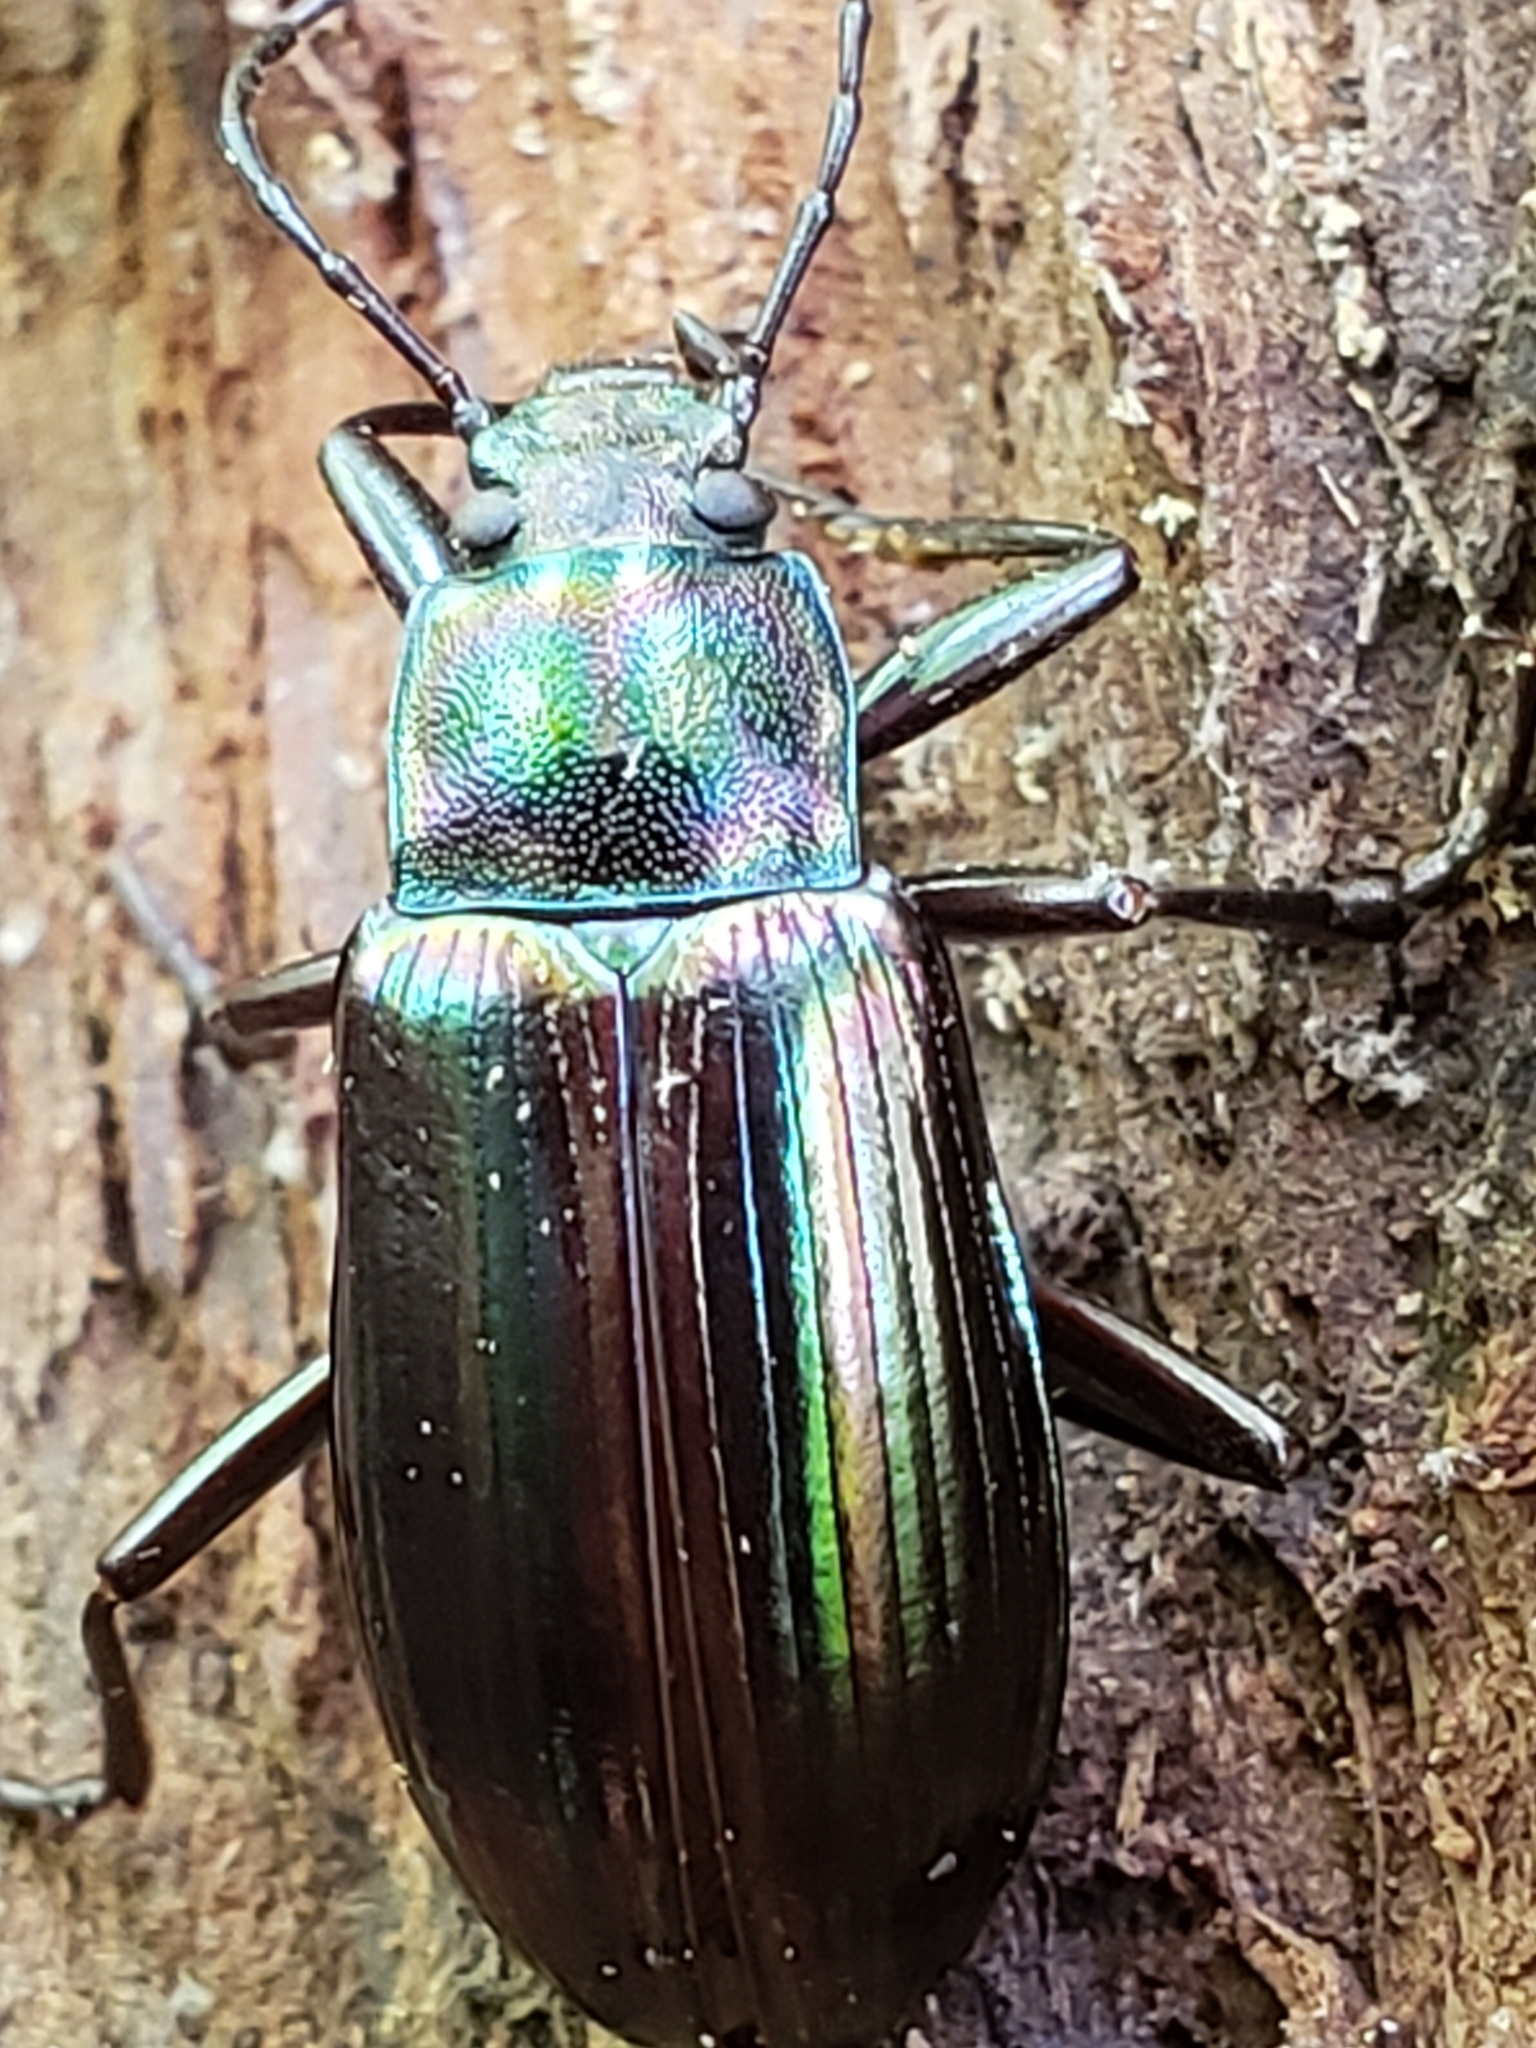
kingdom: Animalia
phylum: Arthropoda
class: Insecta
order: Coleoptera
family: Tenebrionidae
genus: Tarpela
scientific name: Tarpela micans
